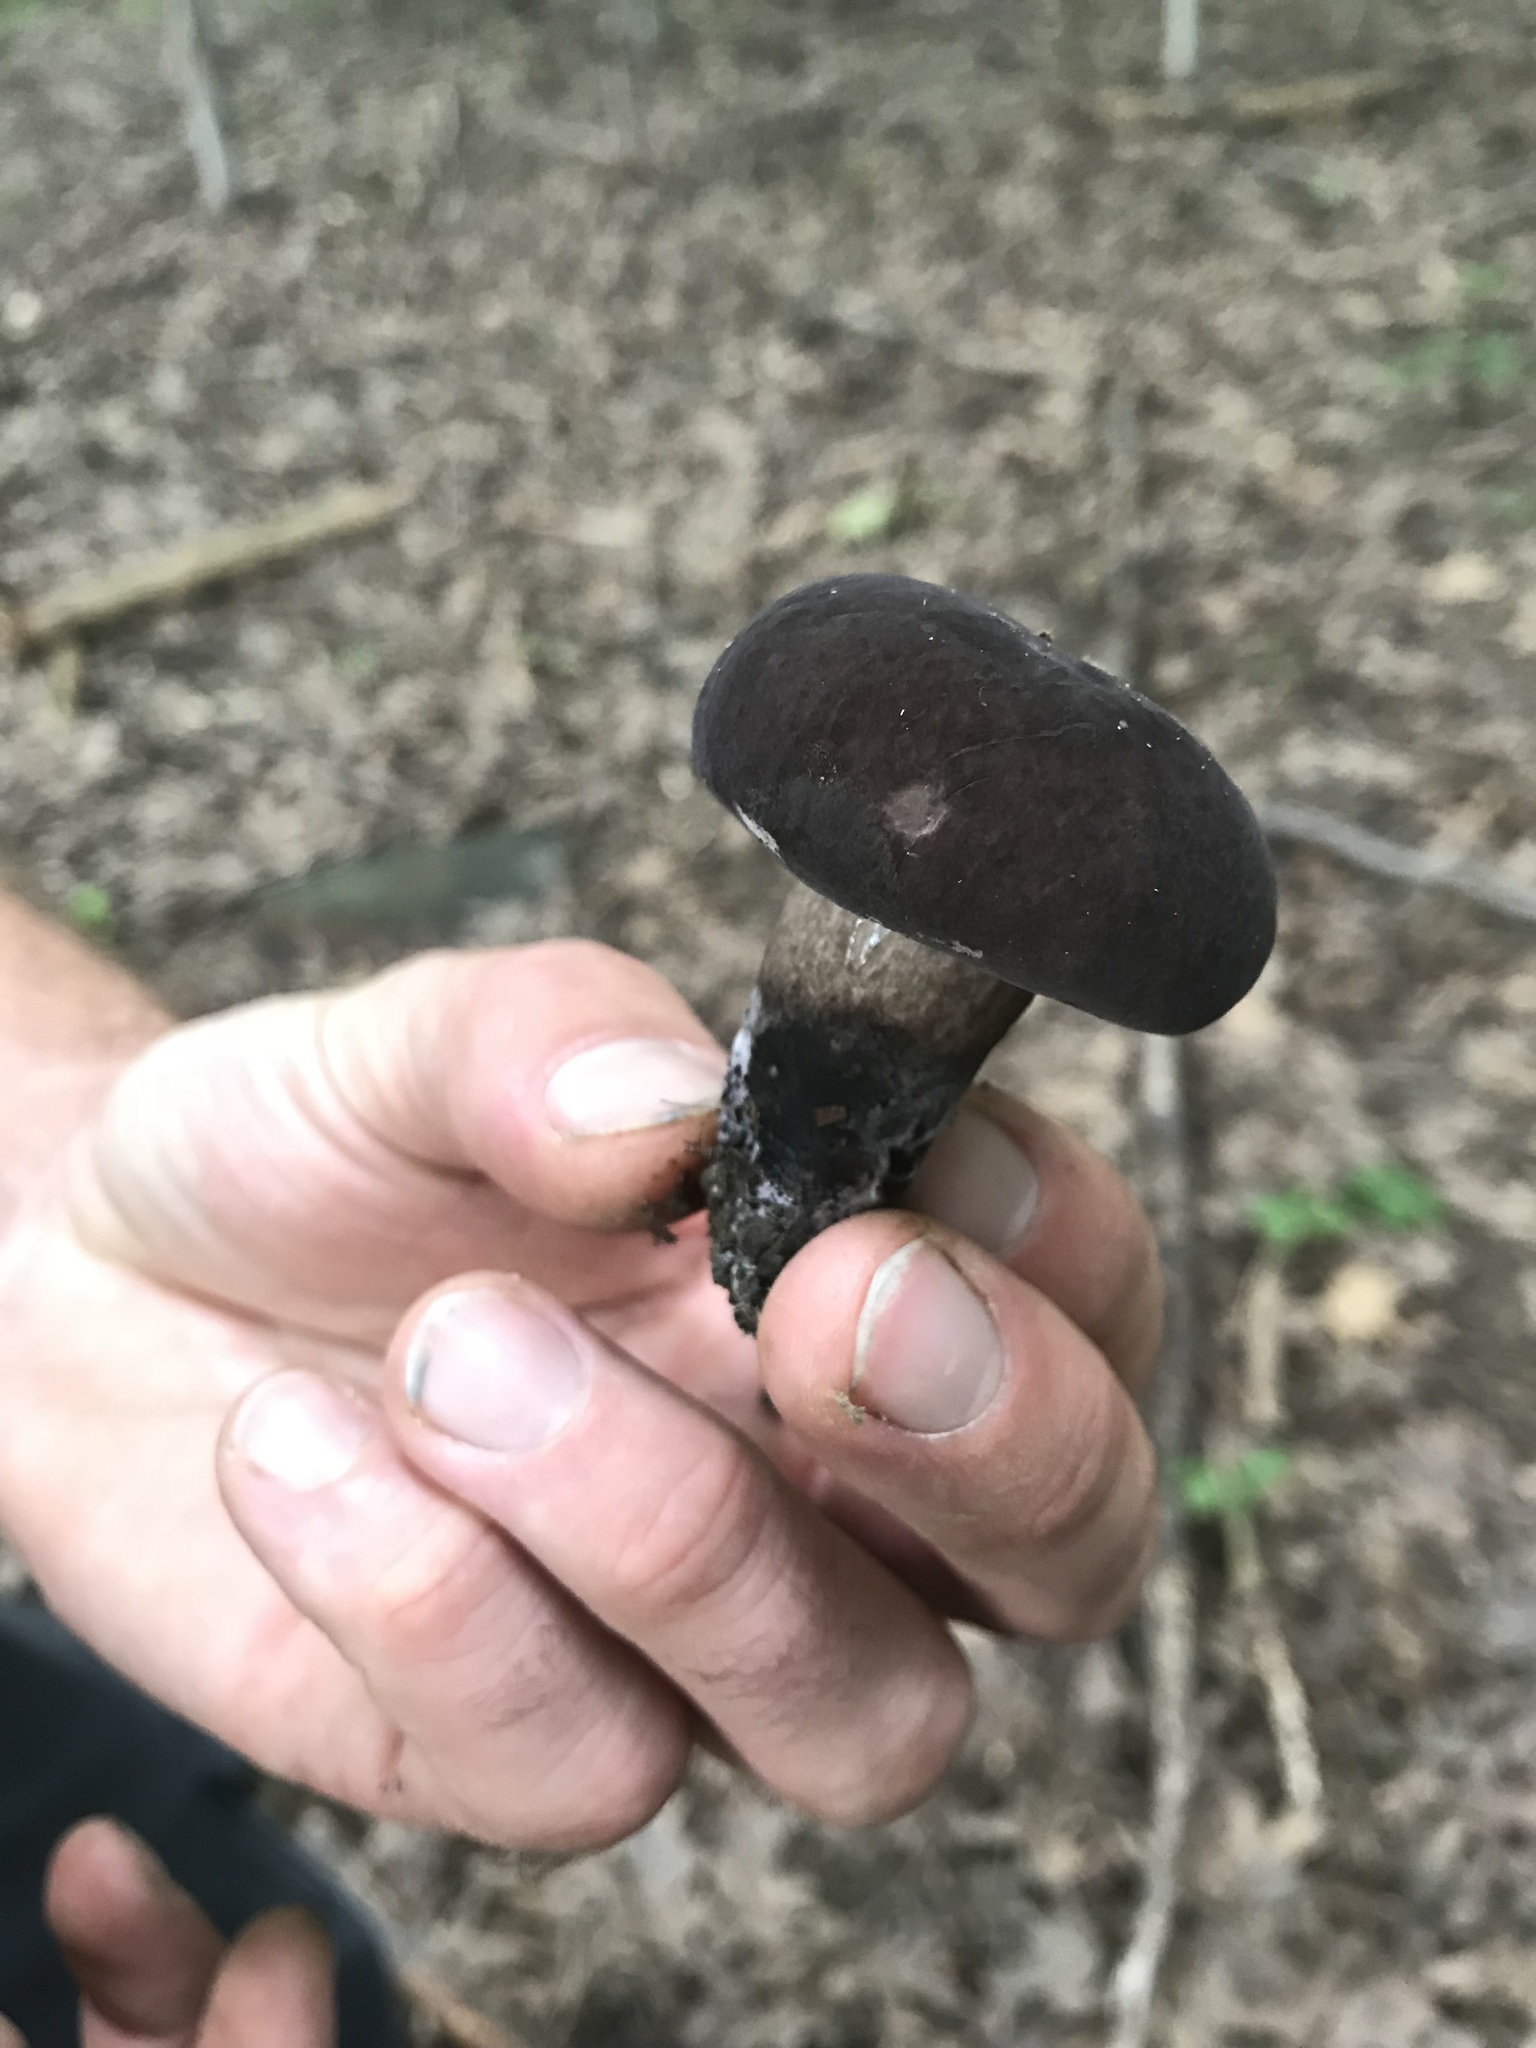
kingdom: Fungi
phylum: Basidiomycota
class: Agaricomycetes
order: Boletales
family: Boletaceae
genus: Tylopilus
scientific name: Tylopilus alboater
